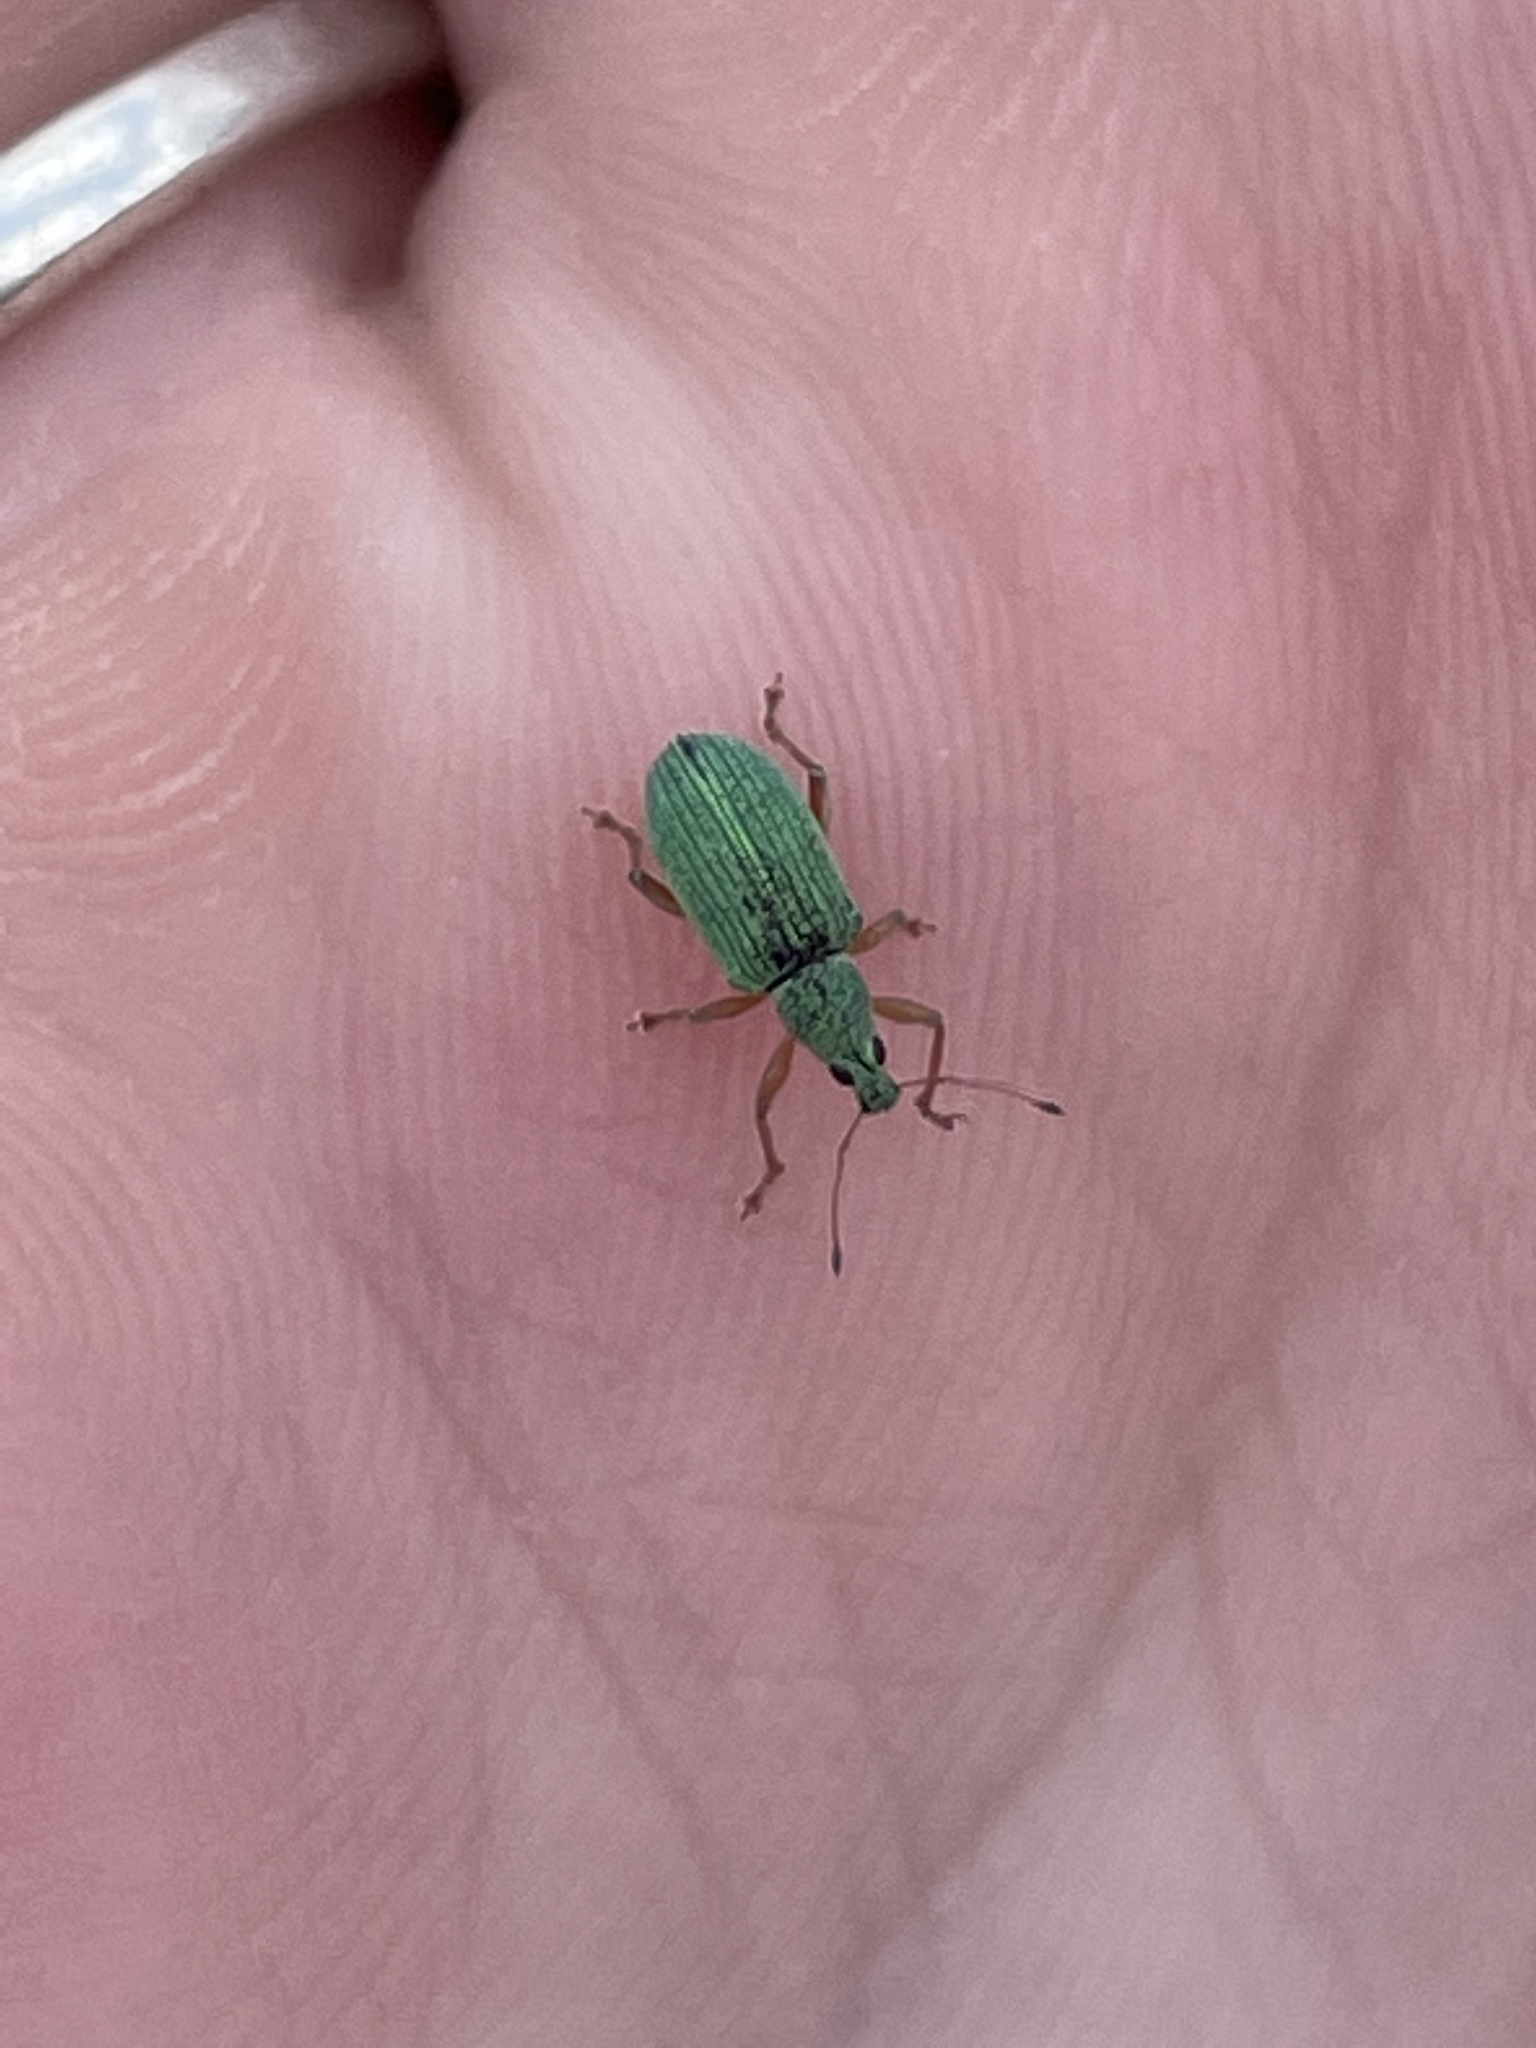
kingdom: Animalia
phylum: Arthropoda
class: Insecta
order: Coleoptera
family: Curculionidae
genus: Polydrusus
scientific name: Polydrusus formosus
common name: Weevil
